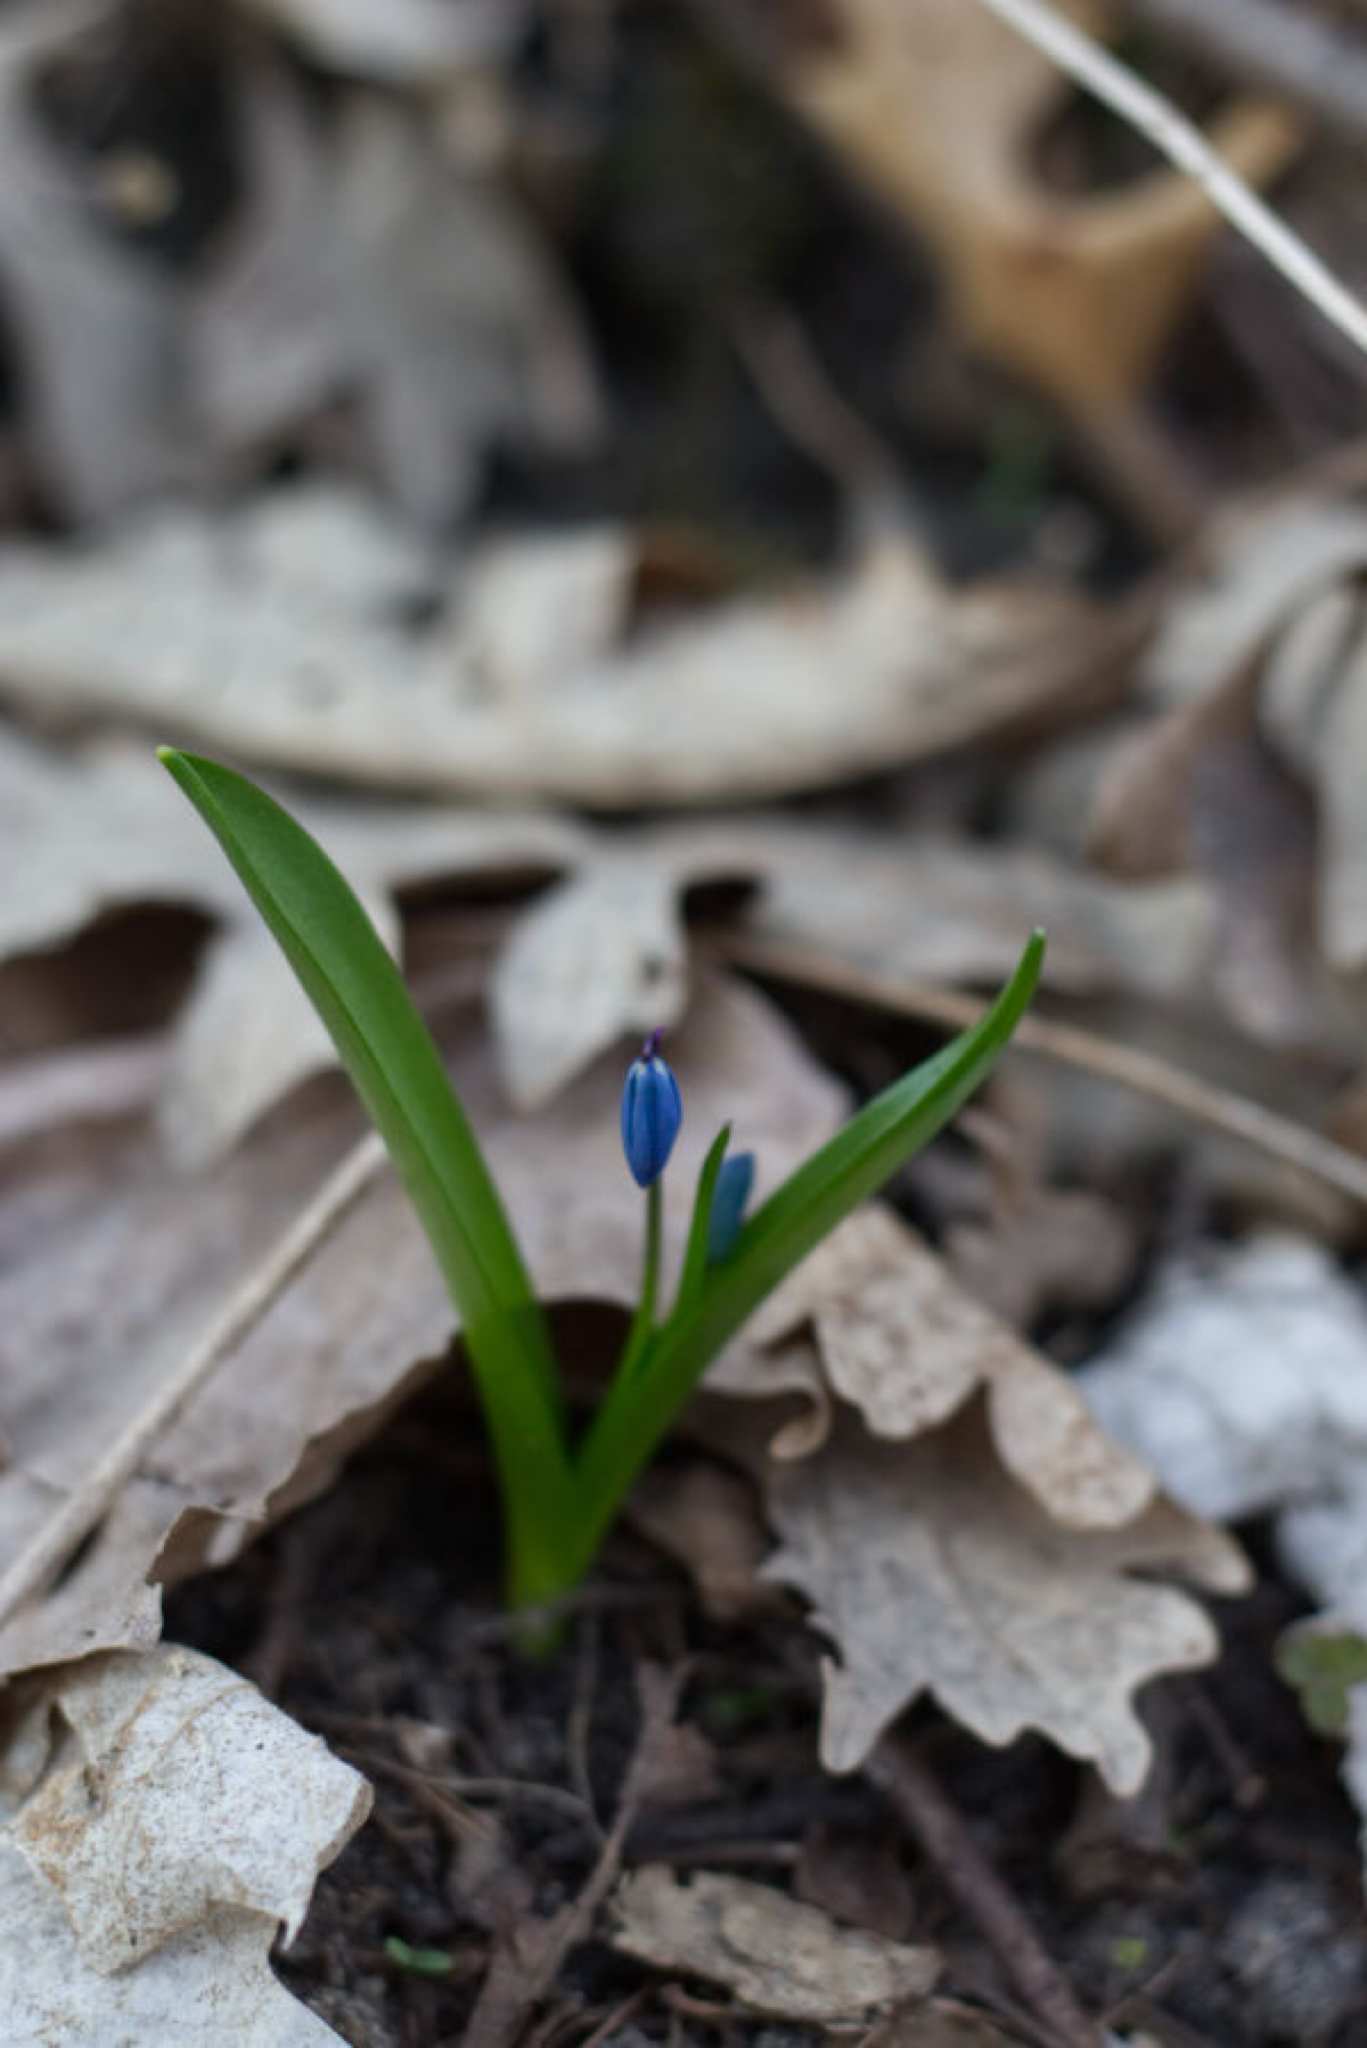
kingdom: Plantae
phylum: Tracheophyta
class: Liliopsida
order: Asparagales
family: Asparagaceae
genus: Scilla
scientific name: Scilla siberica
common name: Siberian squill
